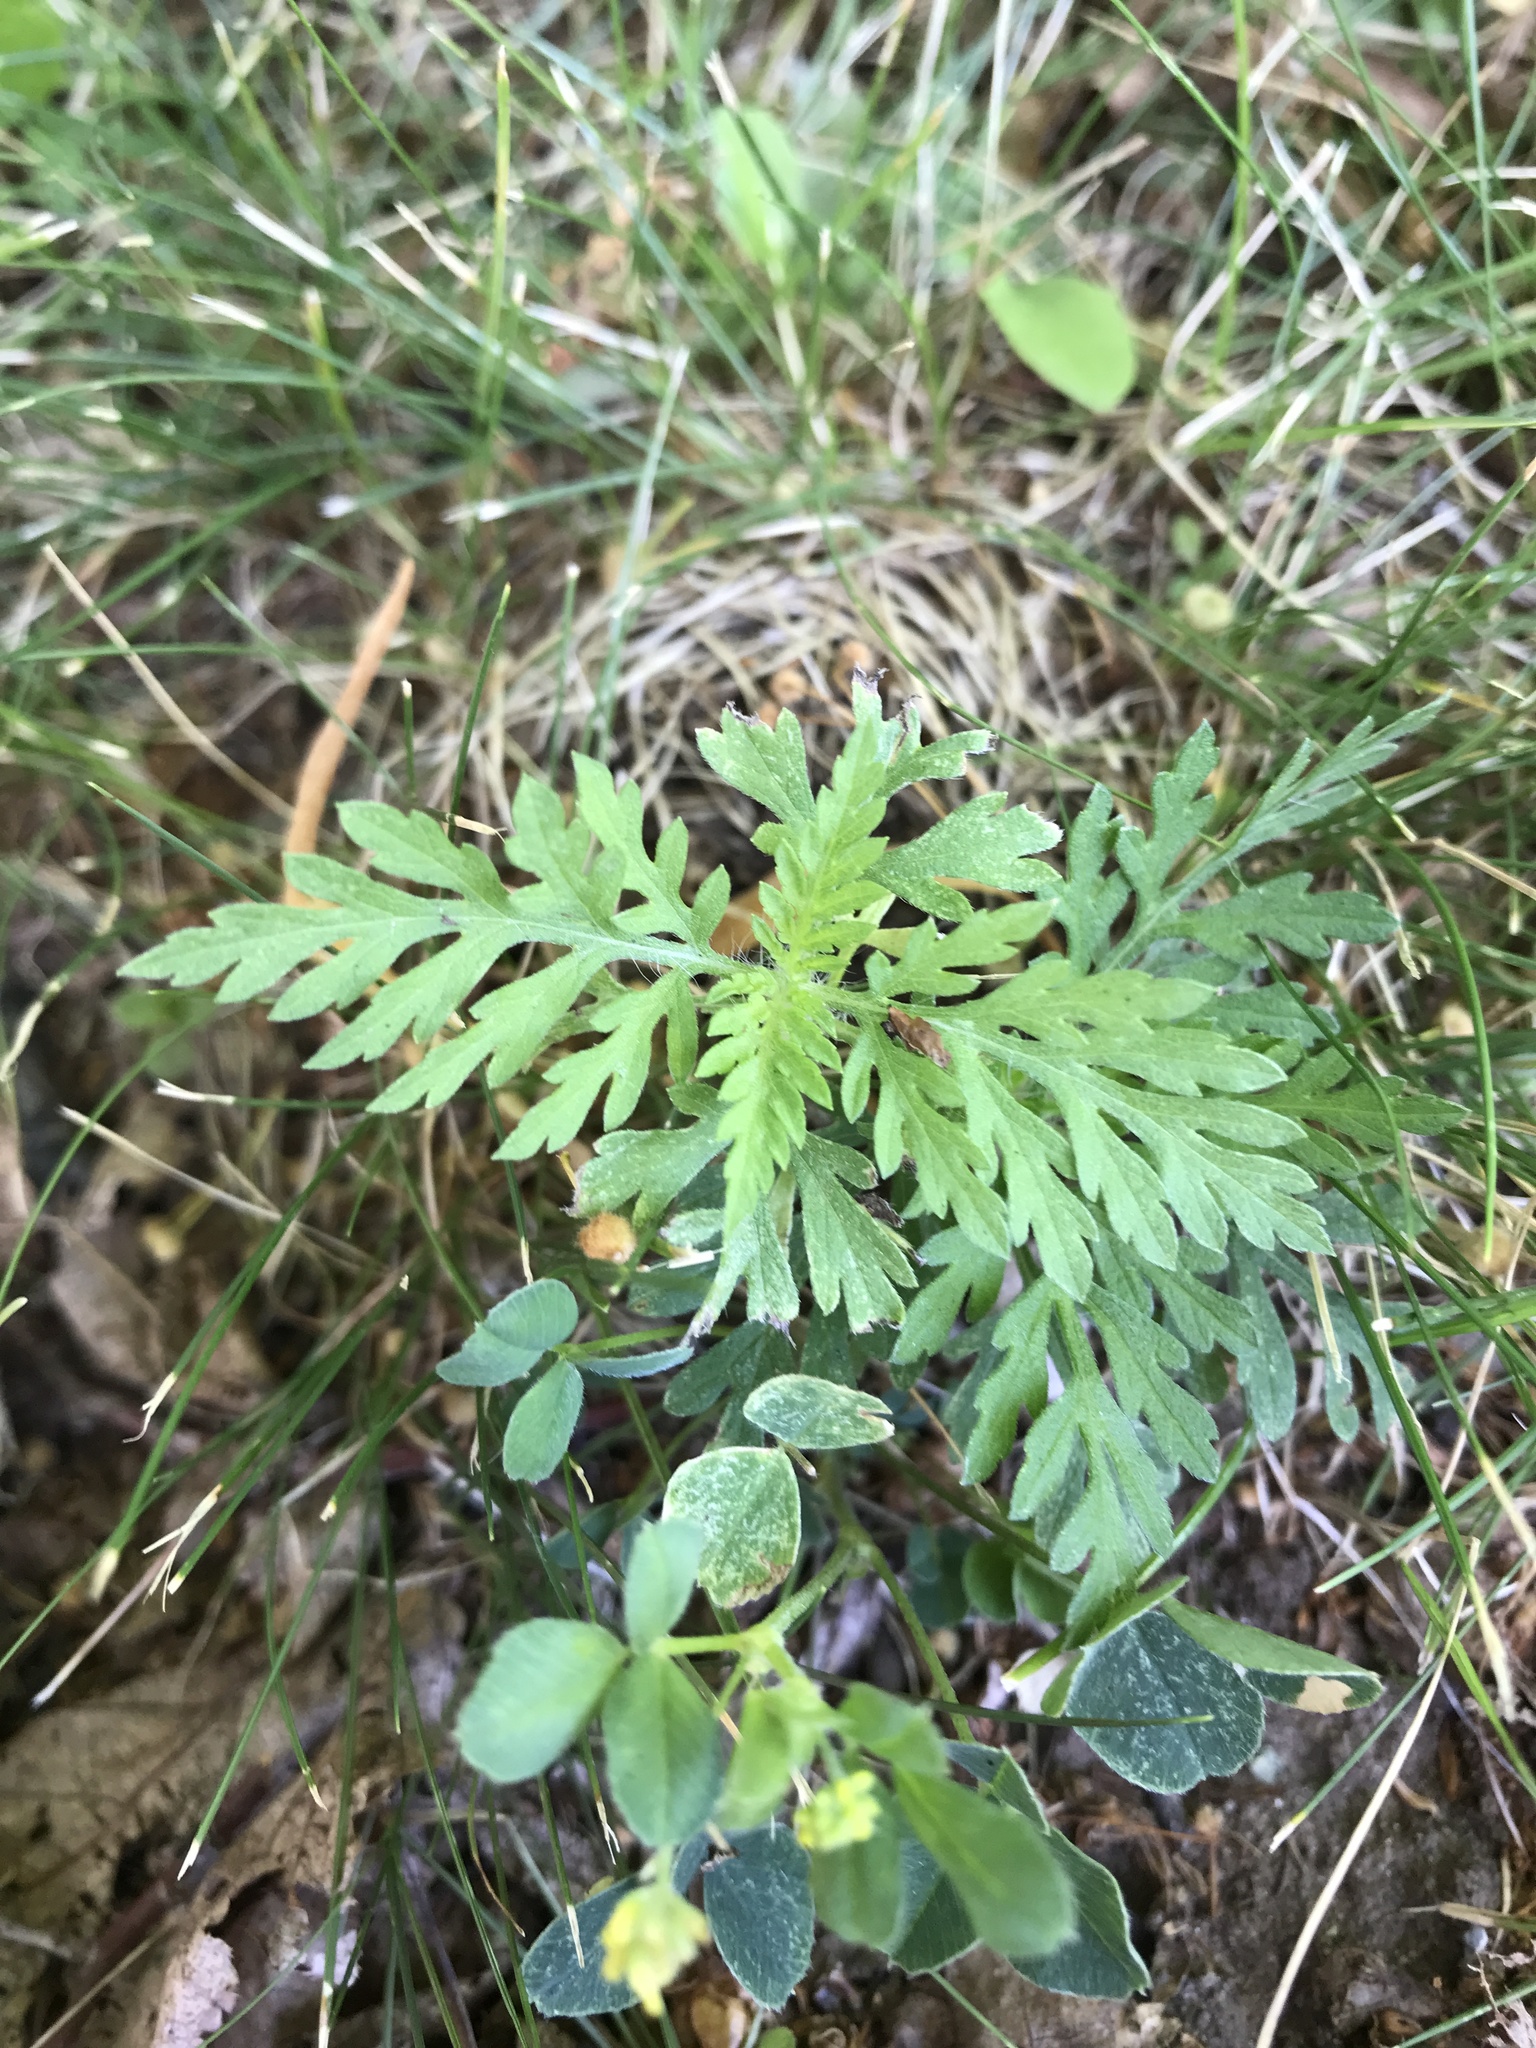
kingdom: Plantae
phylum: Tracheophyta
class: Magnoliopsida
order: Asterales
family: Asteraceae
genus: Ambrosia
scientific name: Ambrosia artemisiifolia
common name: Annual ragweed
